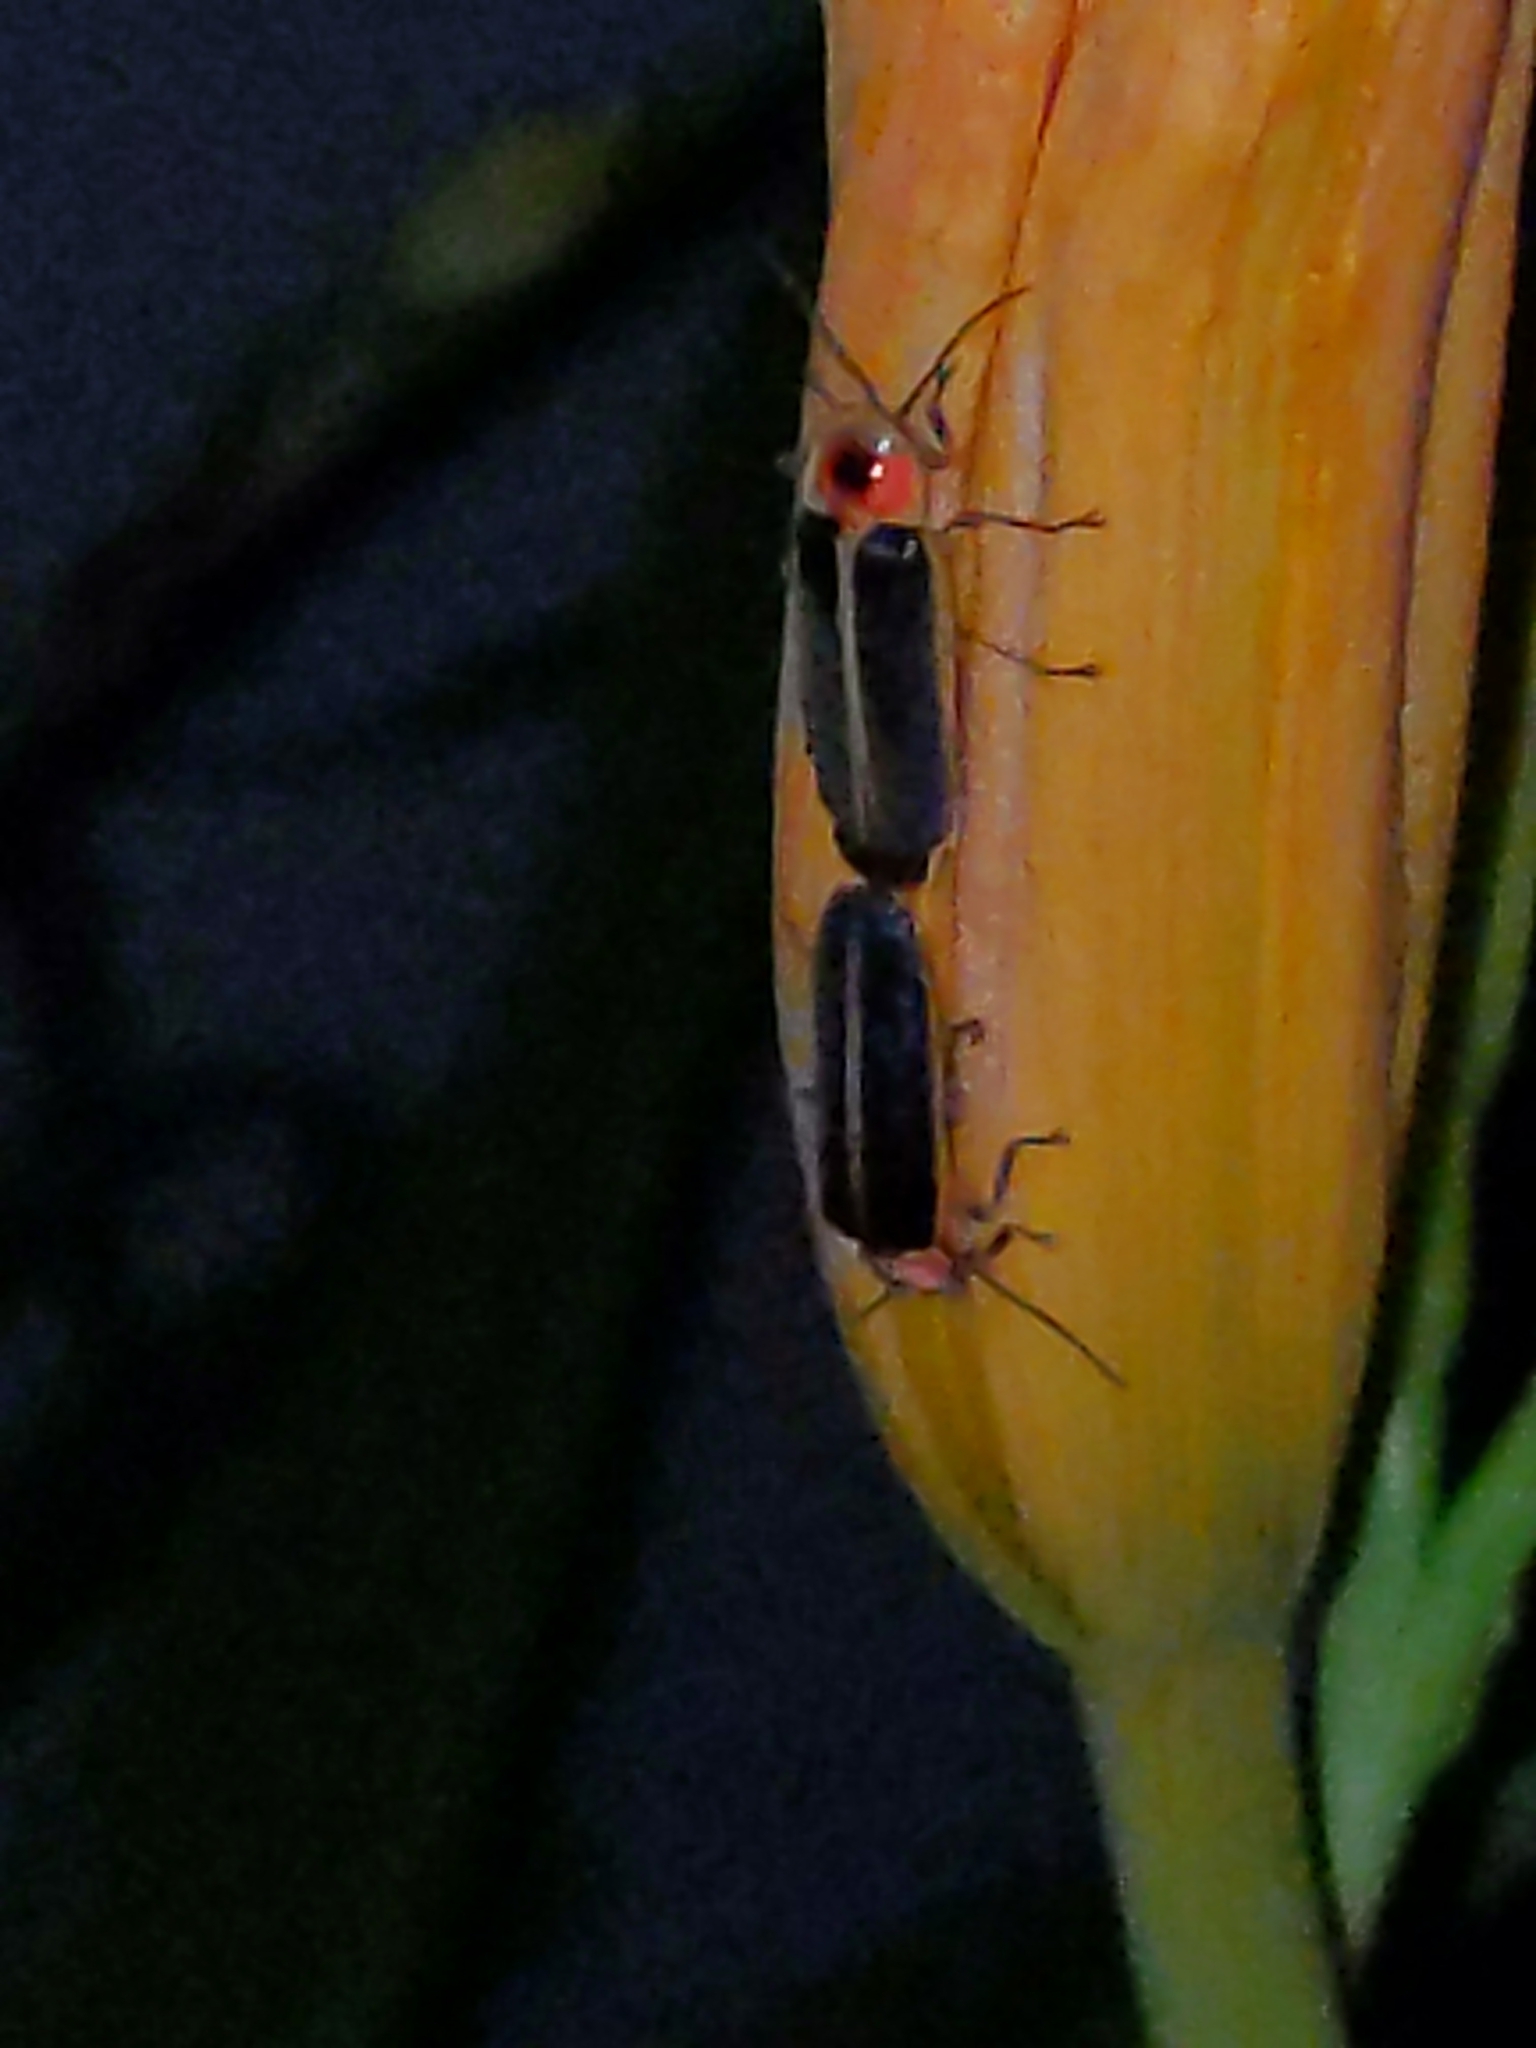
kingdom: Animalia
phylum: Arthropoda
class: Insecta
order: Coleoptera
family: Lampyridae
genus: Photinus
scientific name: Photinus pyralis
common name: Big dipper firefly
